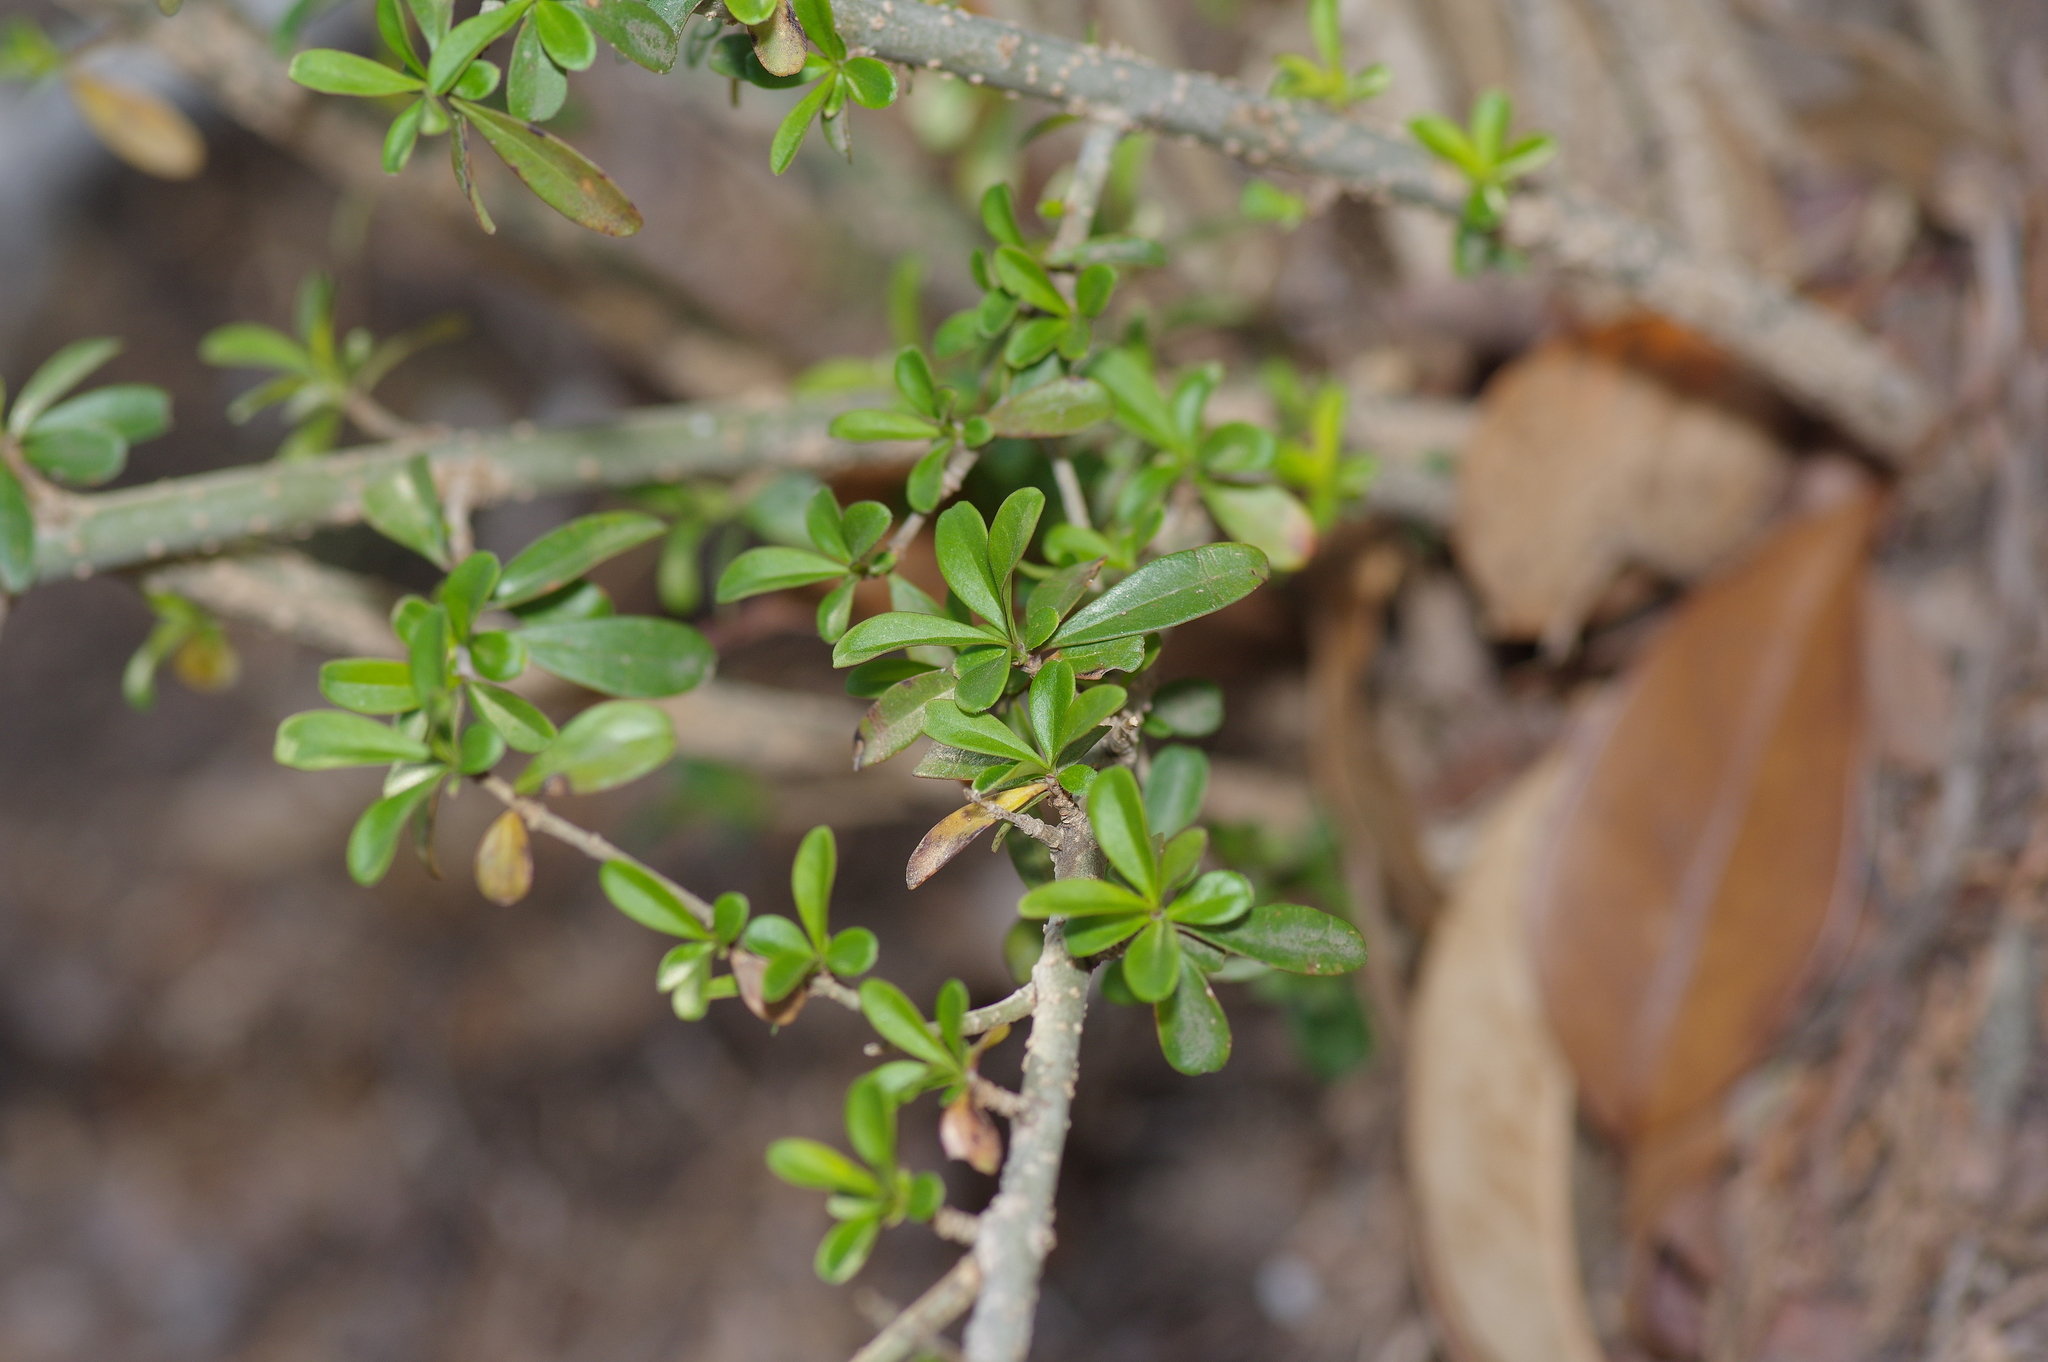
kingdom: Plantae
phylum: Tracheophyta
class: Magnoliopsida
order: Lamiales
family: Oleaceae
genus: Ligustrum
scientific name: Ligustrum quihoui
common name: Waxyleaf privet
